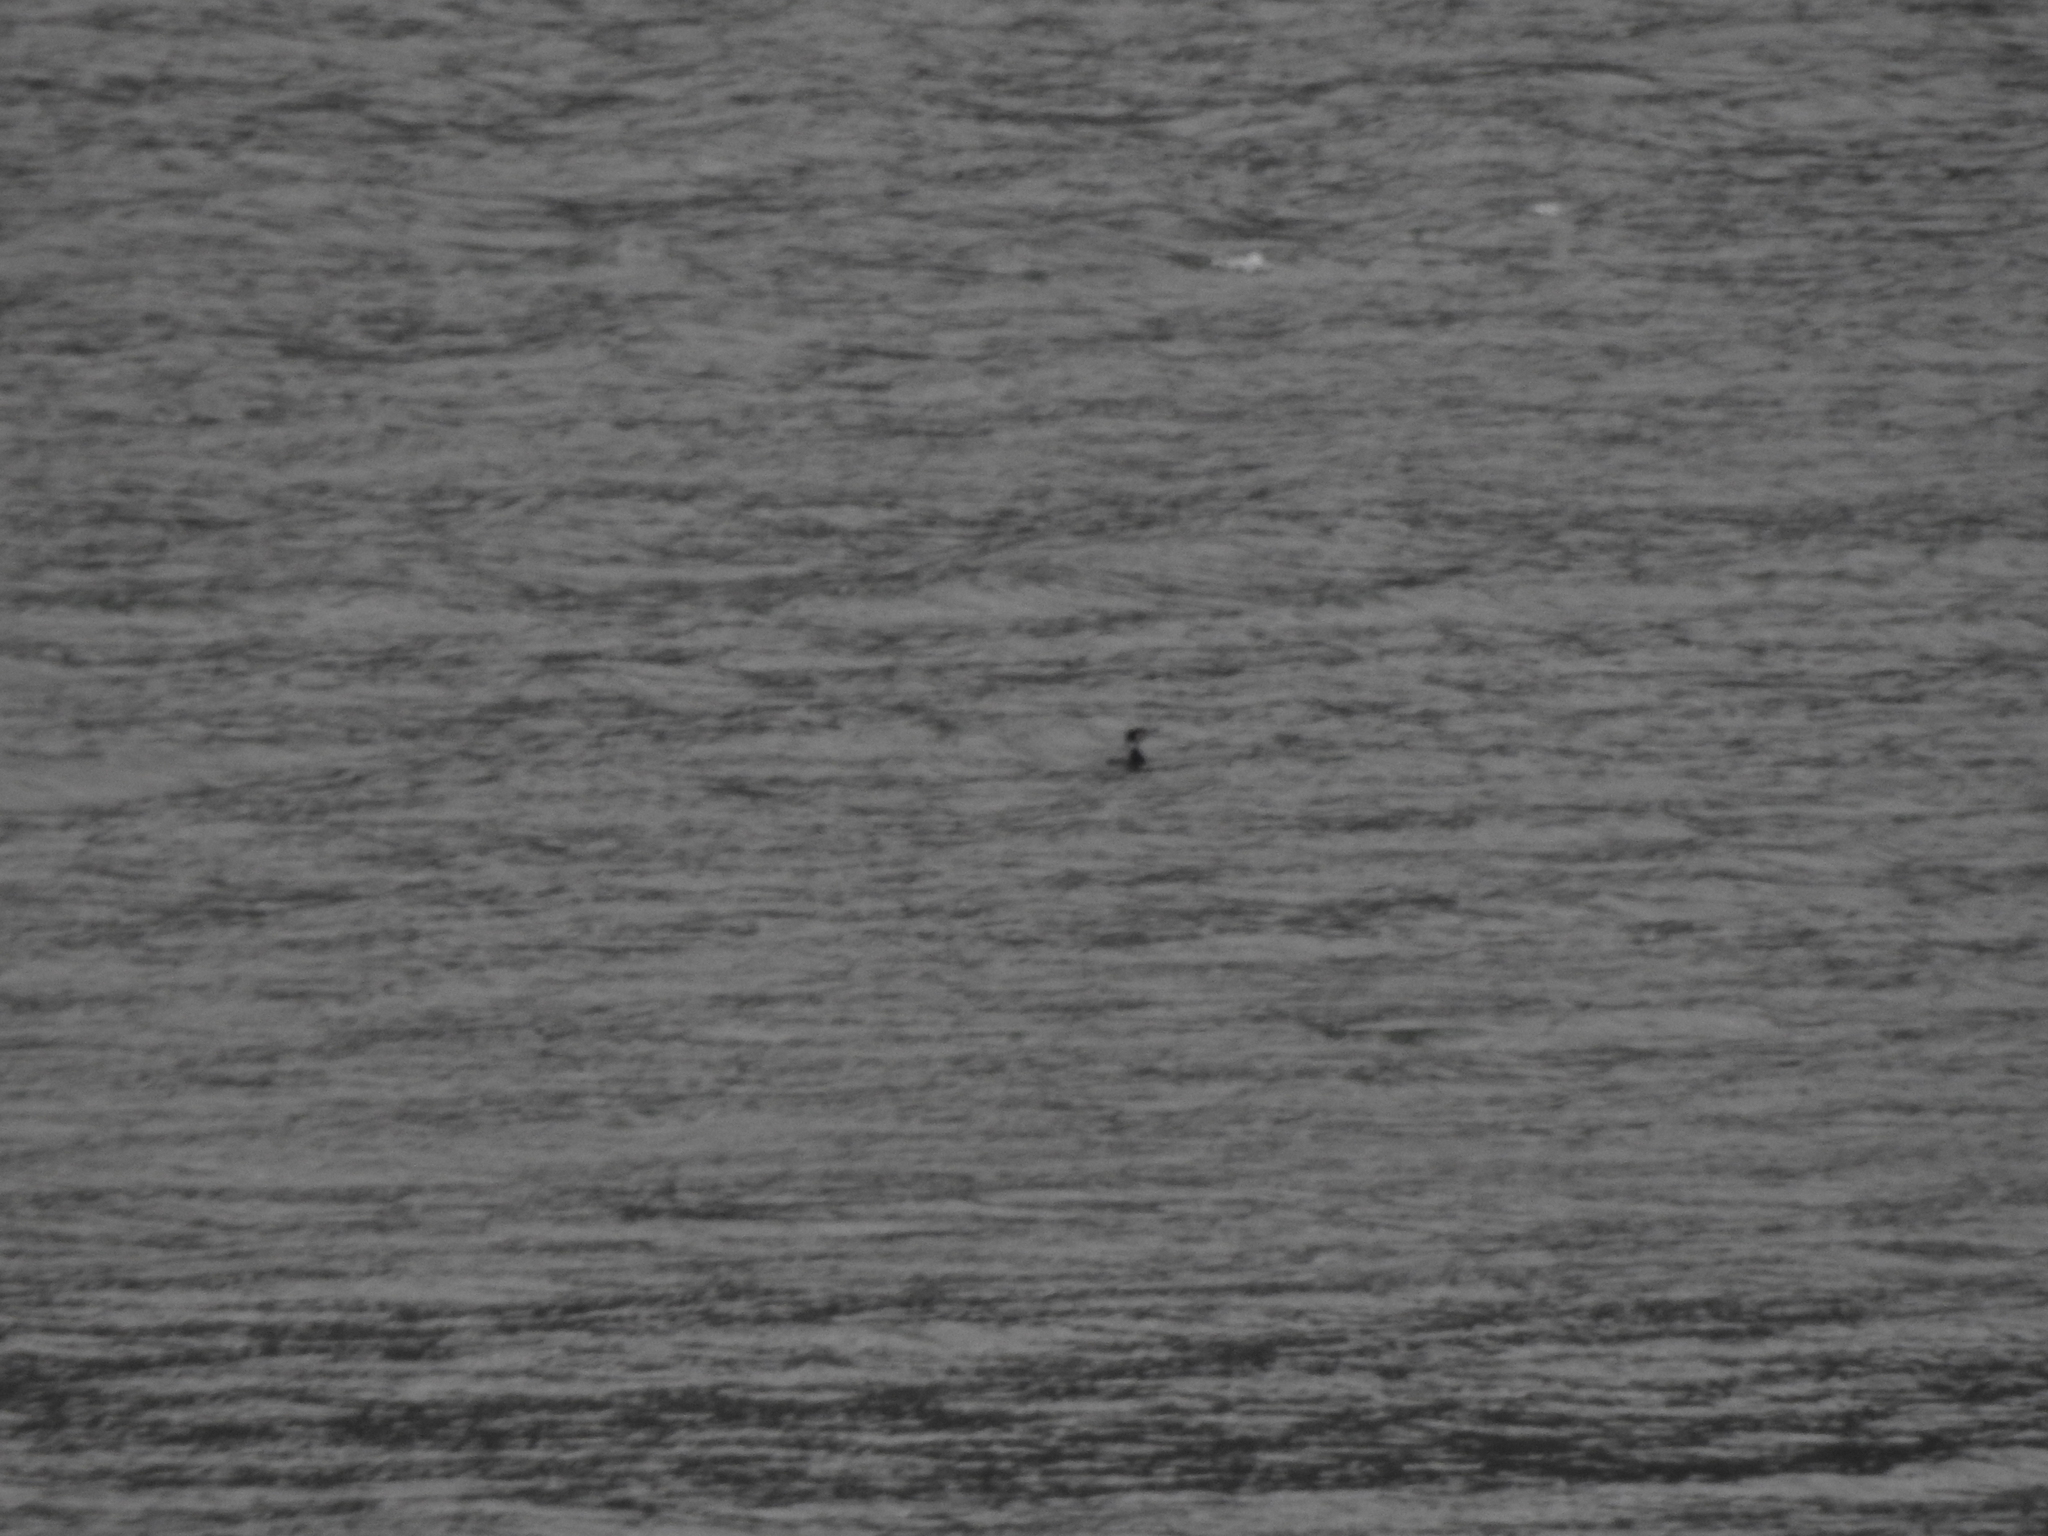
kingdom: Animalia
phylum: Chordata
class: Aves
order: Suliformes
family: Phalacrocoracidae
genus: Phalacrocorax
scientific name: Phalacrocorax carbo
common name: Great cormorant
